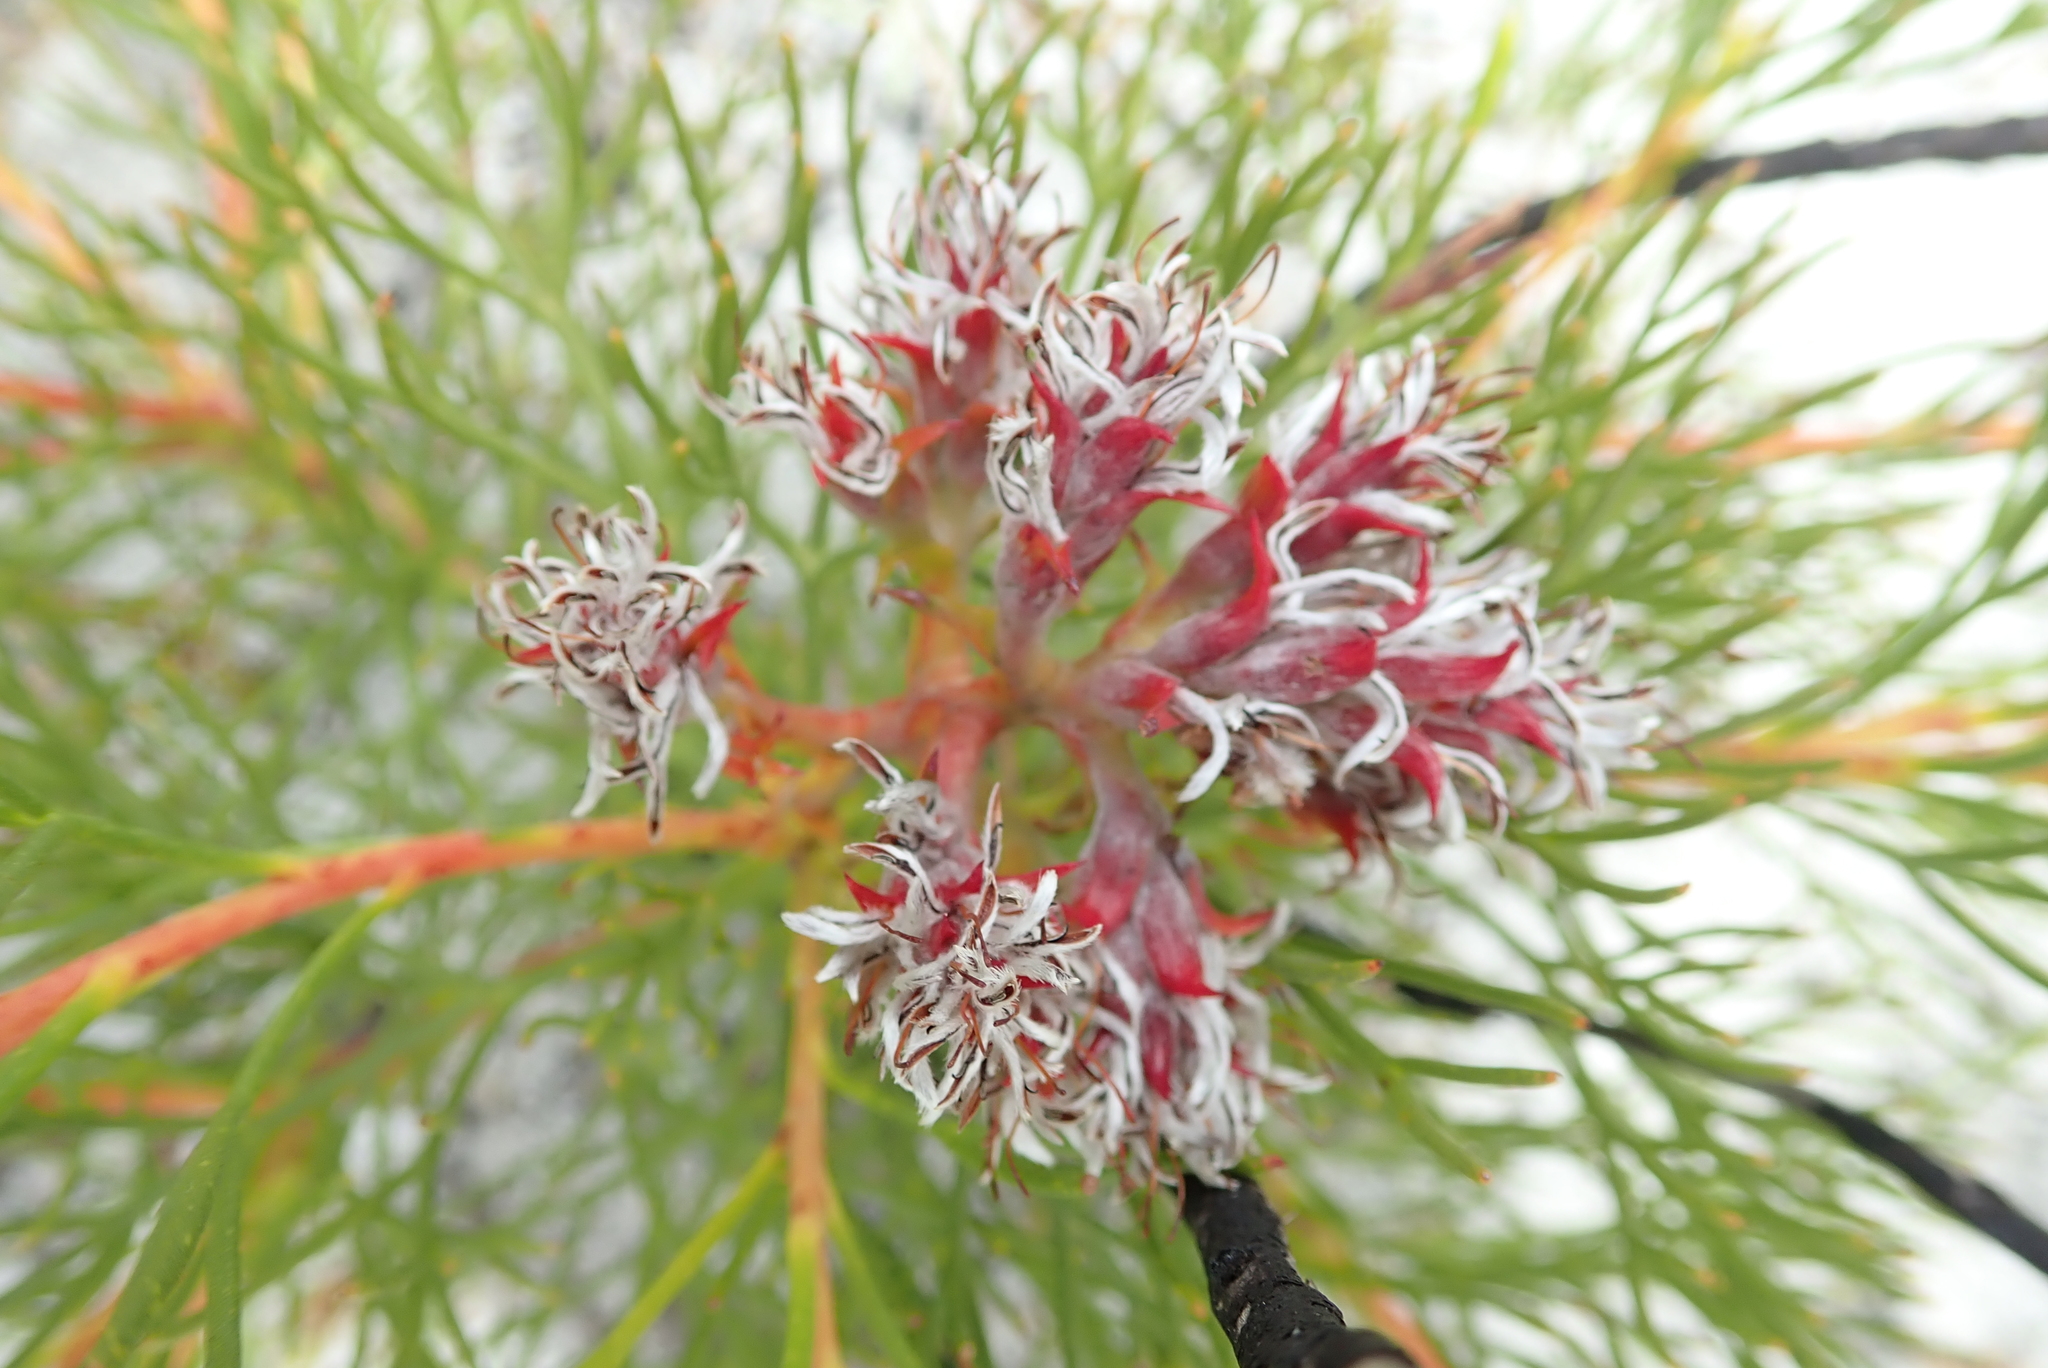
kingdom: Plantae
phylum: Tracheophyta
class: Magnoliopsida
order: Proteales
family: Proteaceae
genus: Serruria
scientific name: Serruria rubricaulis
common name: Red-stem spiderhead
